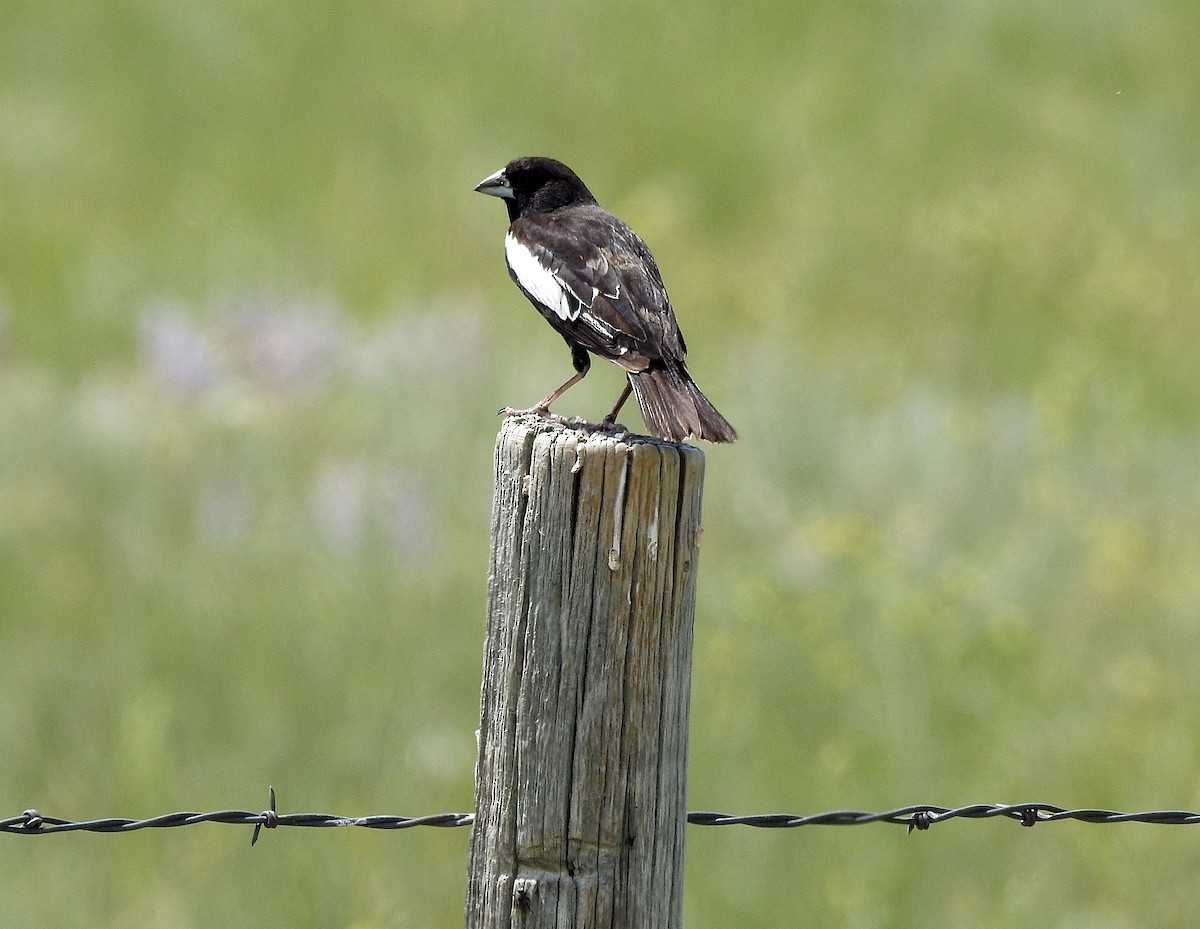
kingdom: Animalia
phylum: Chordata
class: Aves
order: Passeriformes
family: Passerellidae
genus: Calamospiza
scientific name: Calamospiza melanocorys
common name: Lark bunting
